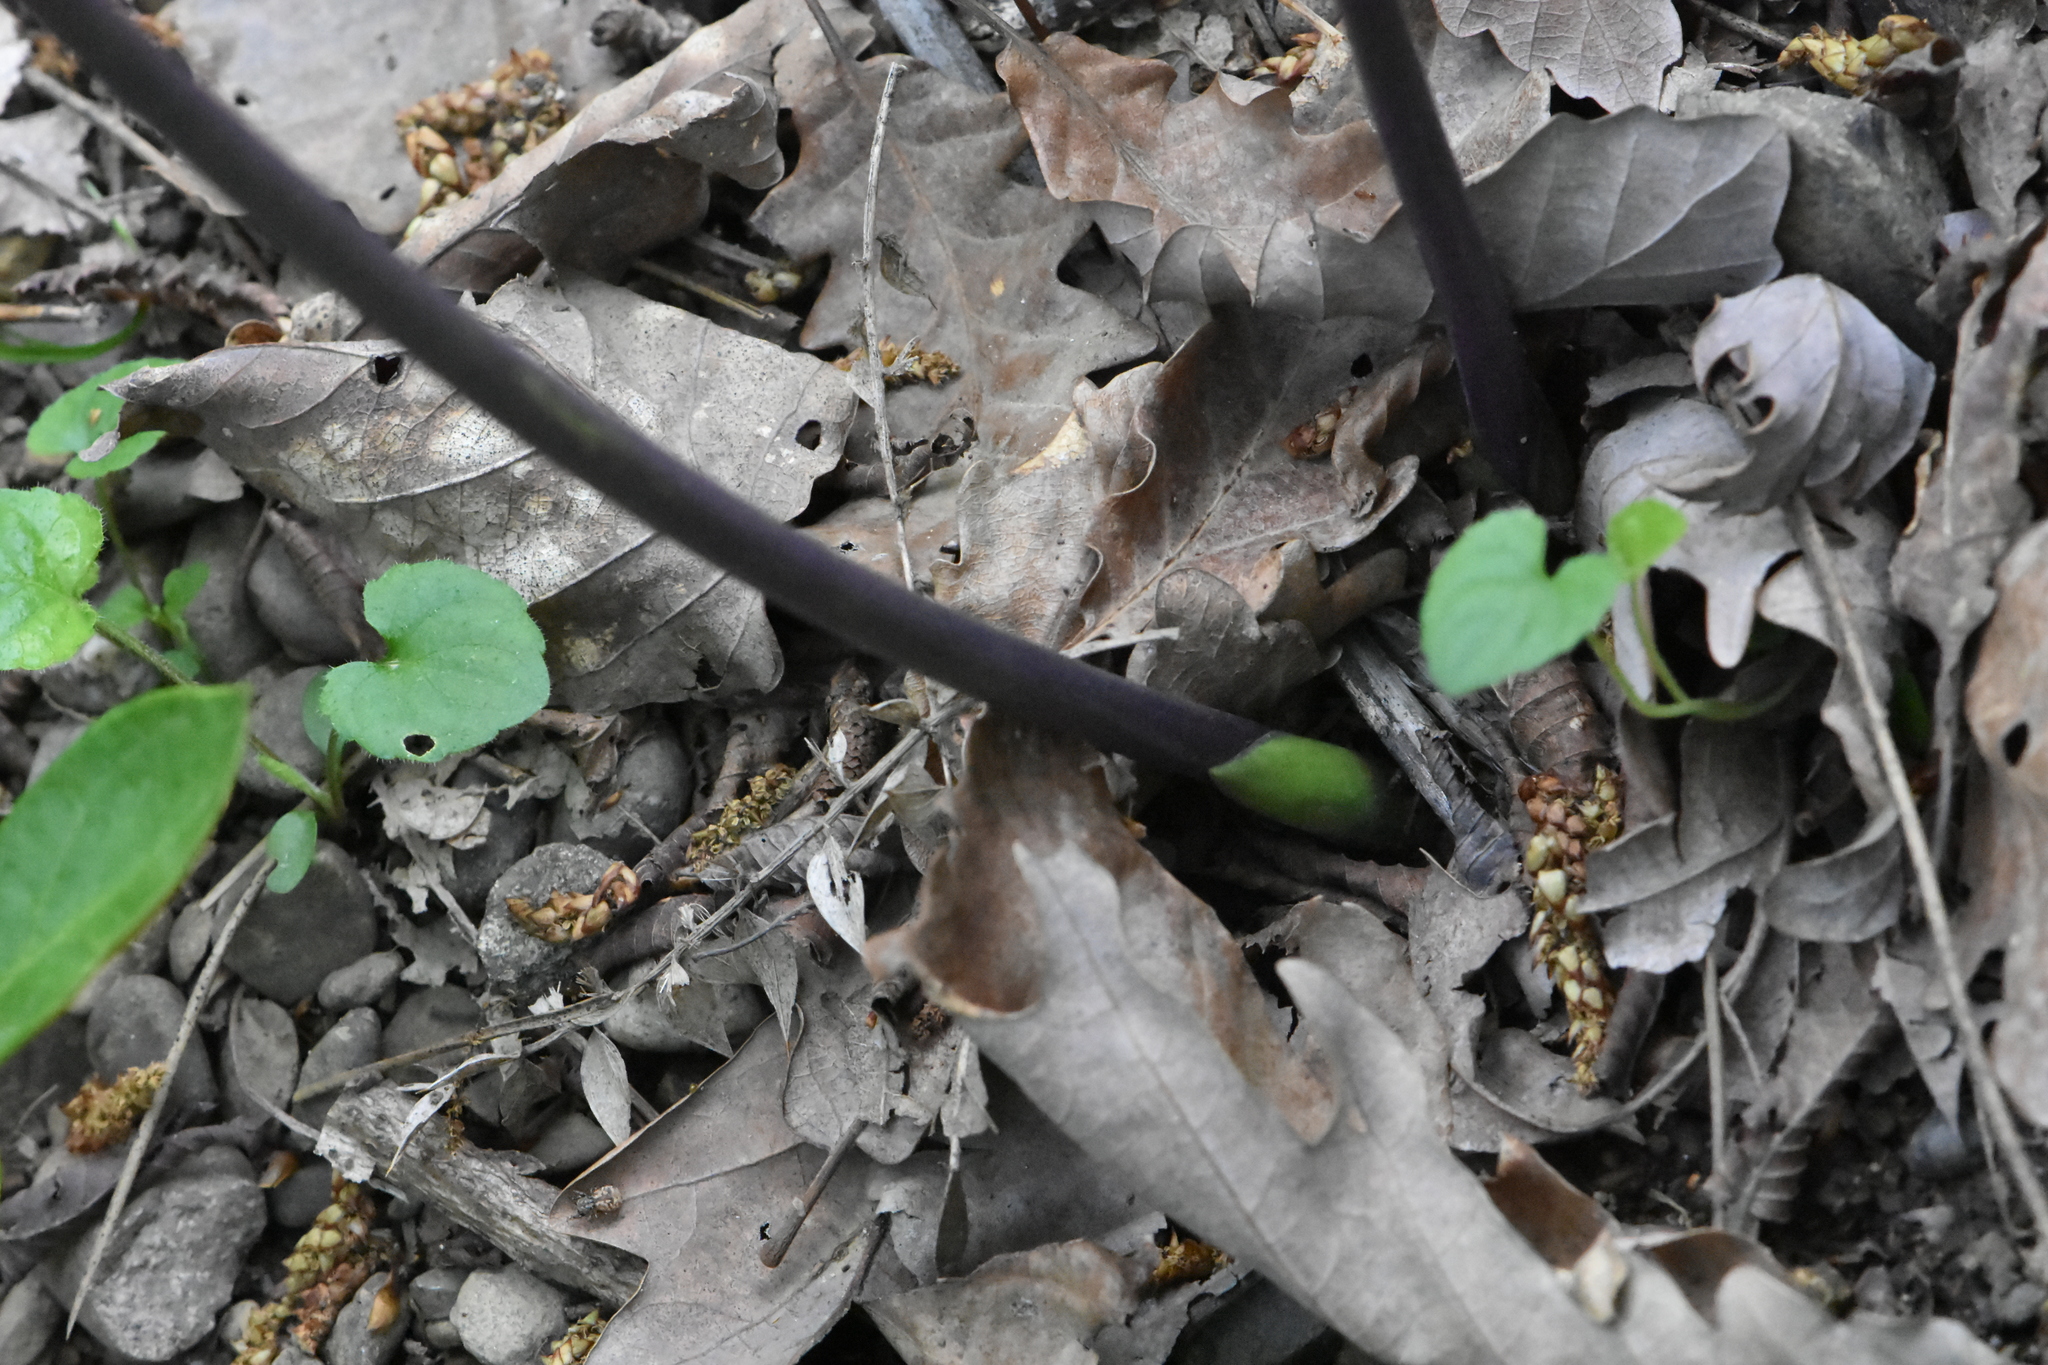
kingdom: Plantae
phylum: Tracheophyta
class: Liliopsida
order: Asparagales
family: Asparagaceae
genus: Ruscus
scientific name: Ruscus aculeatus
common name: Butcher's-broom
